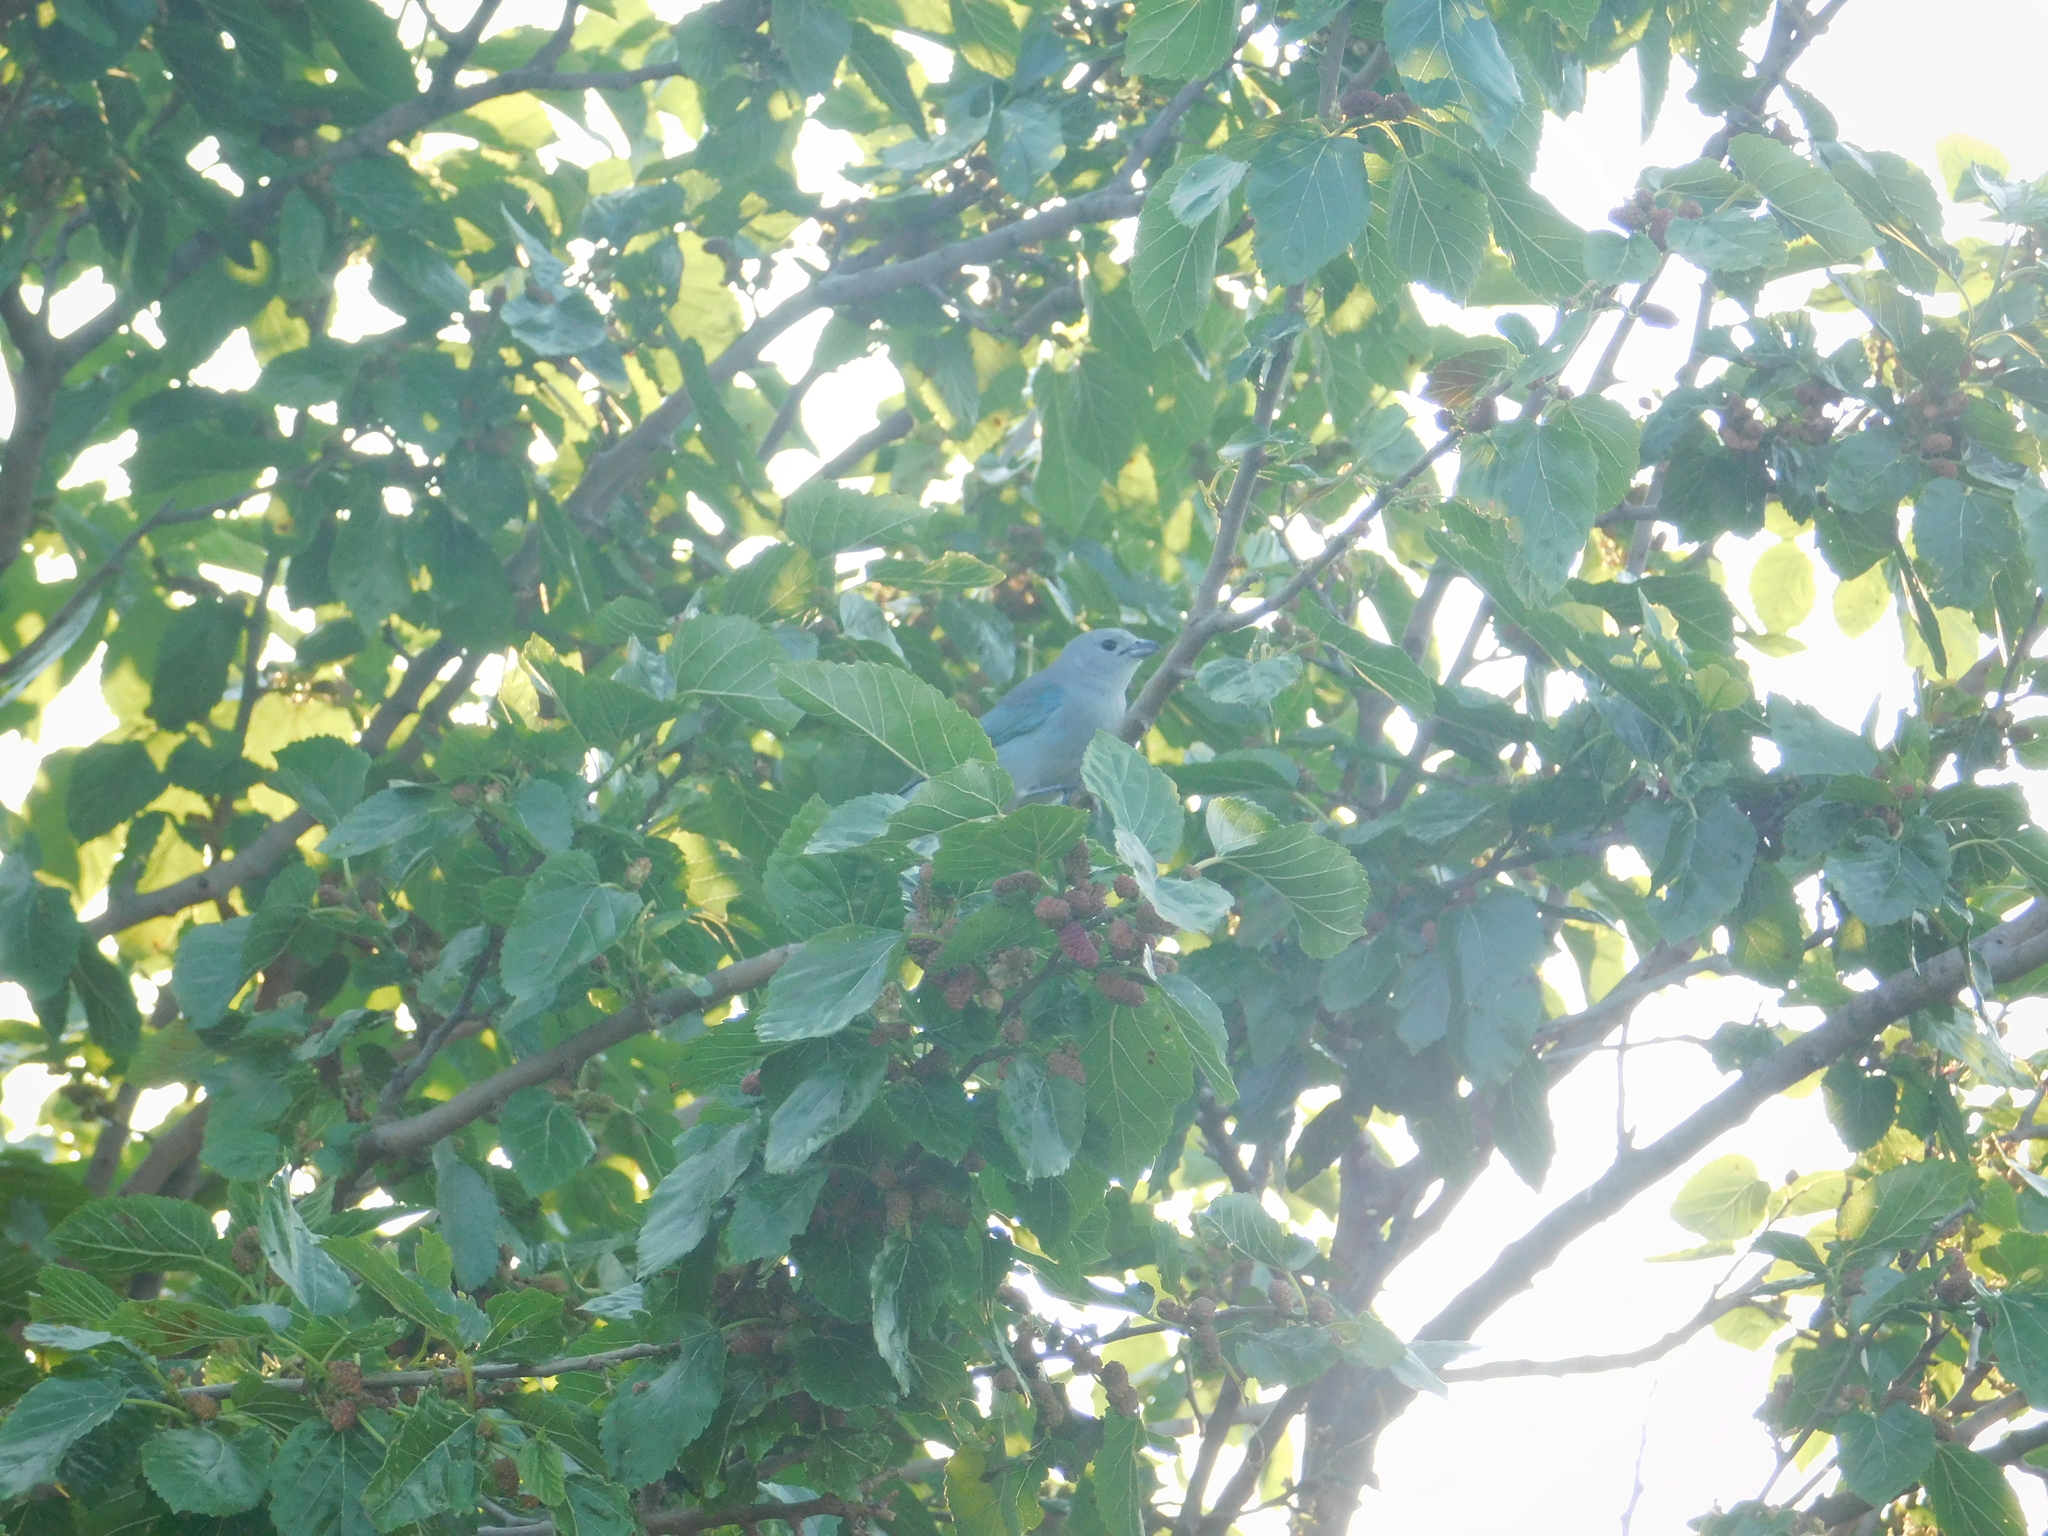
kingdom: Animalia
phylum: Chordata
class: Aves
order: Passeriformes
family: Thraupidae
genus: Thraupis
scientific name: Thraupis sayaca
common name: Sayaca tanager
